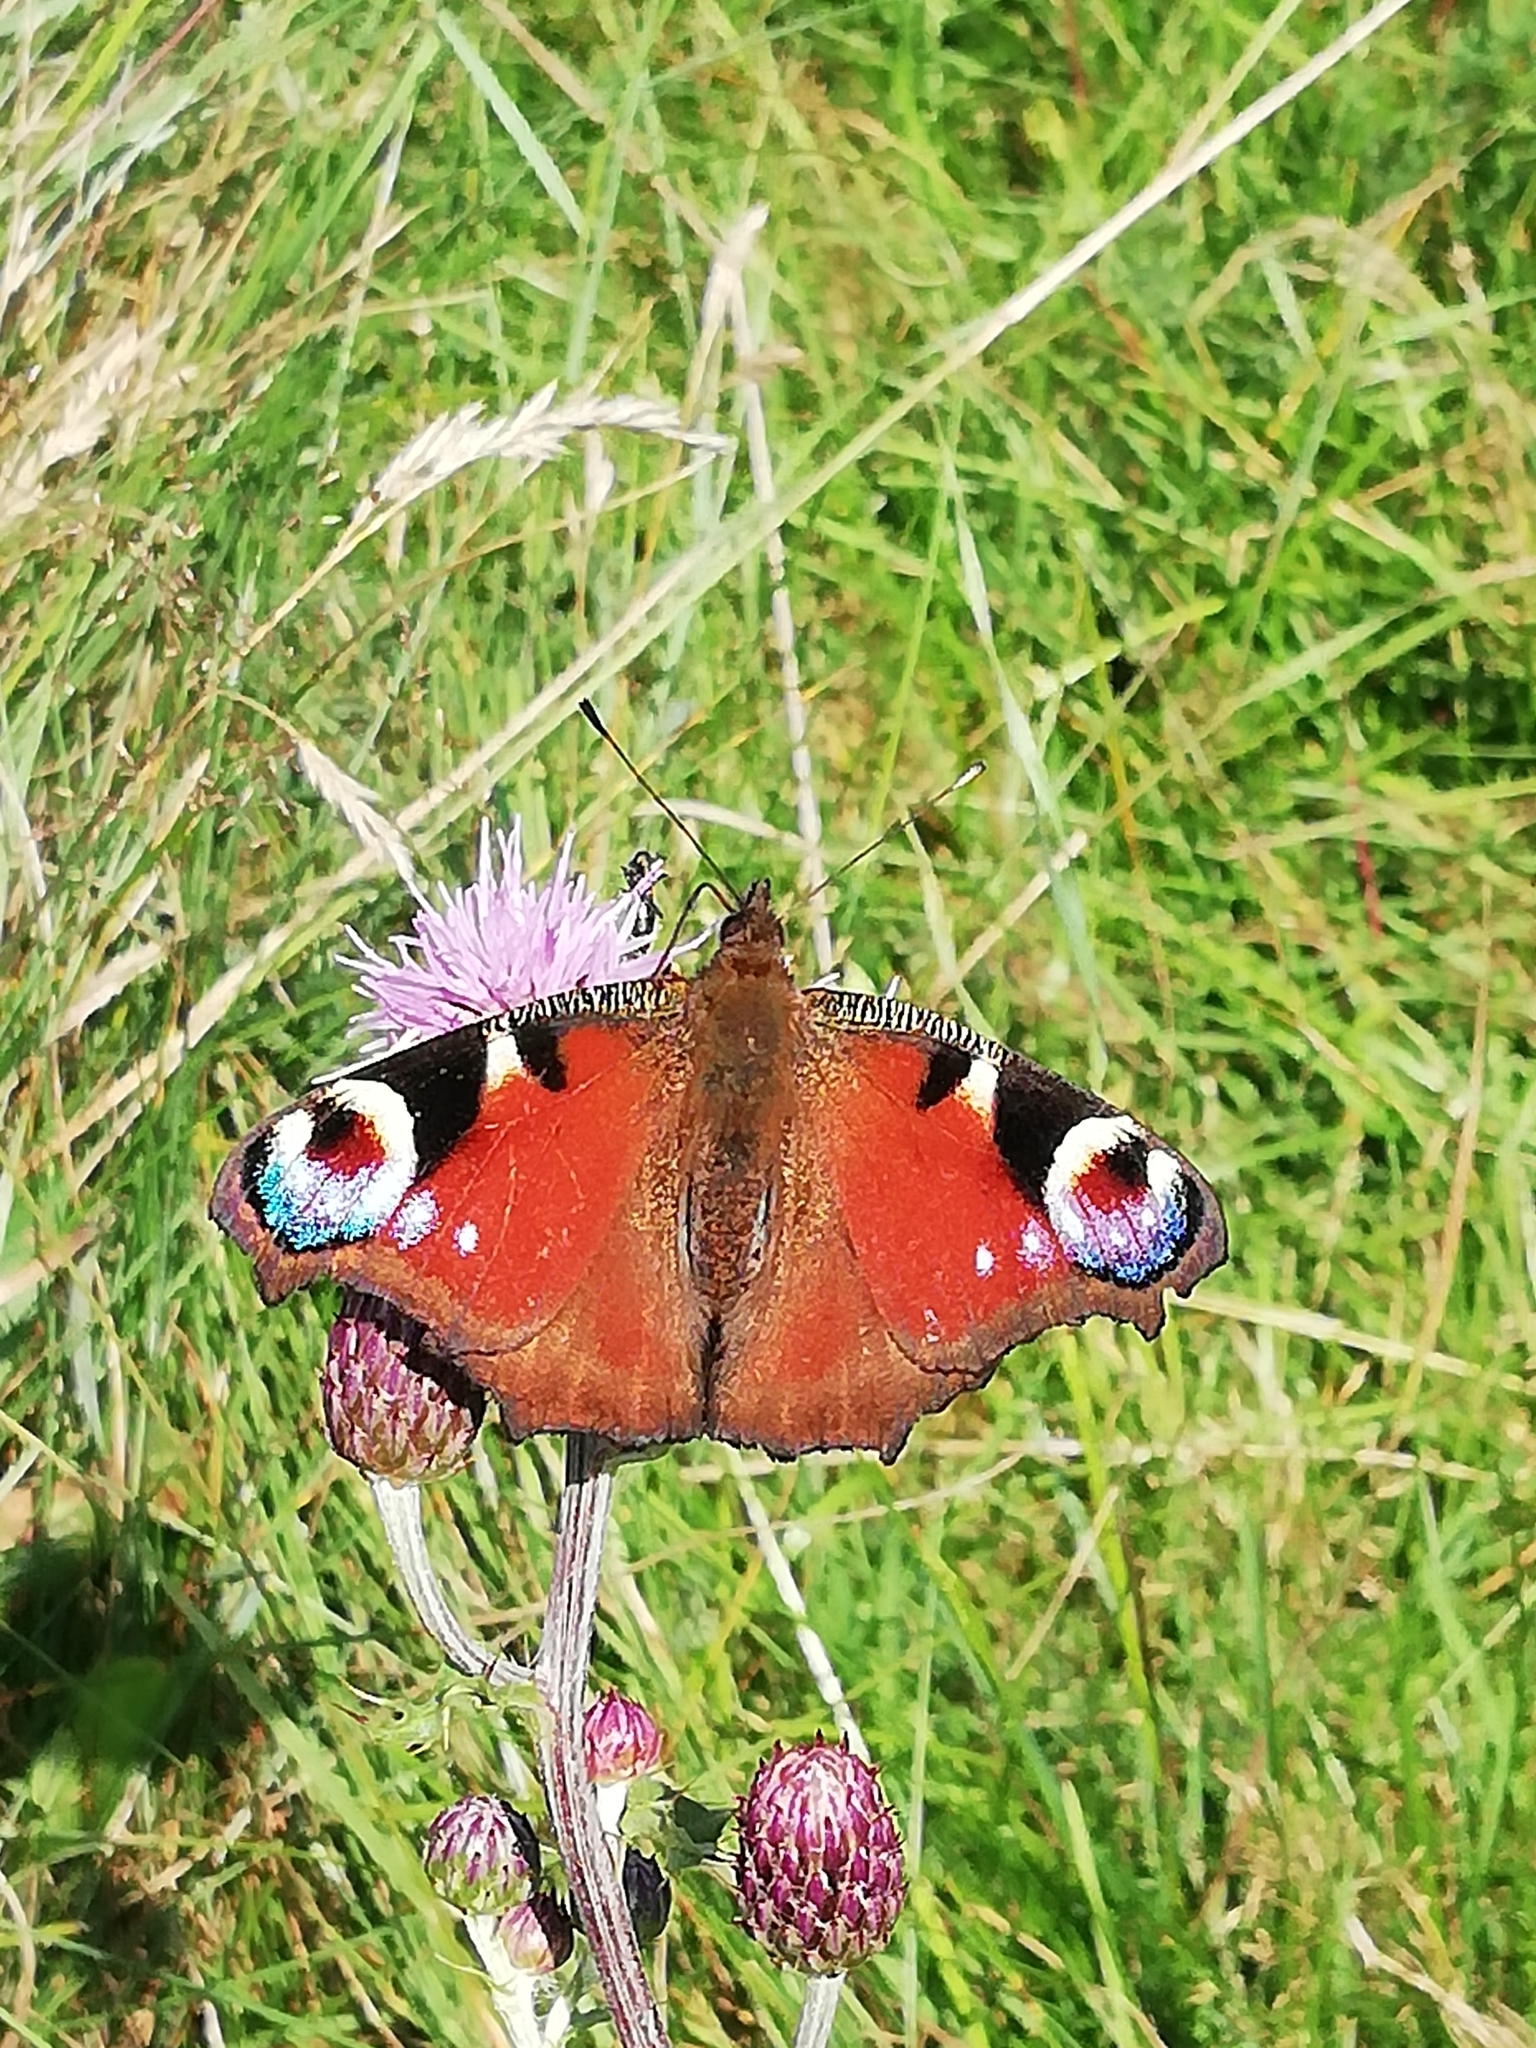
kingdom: Animalia
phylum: Arthropoda
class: Insecta
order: Lepidoptera
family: Nymphalidae
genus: Aglais
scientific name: Aglais io
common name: Peacock
